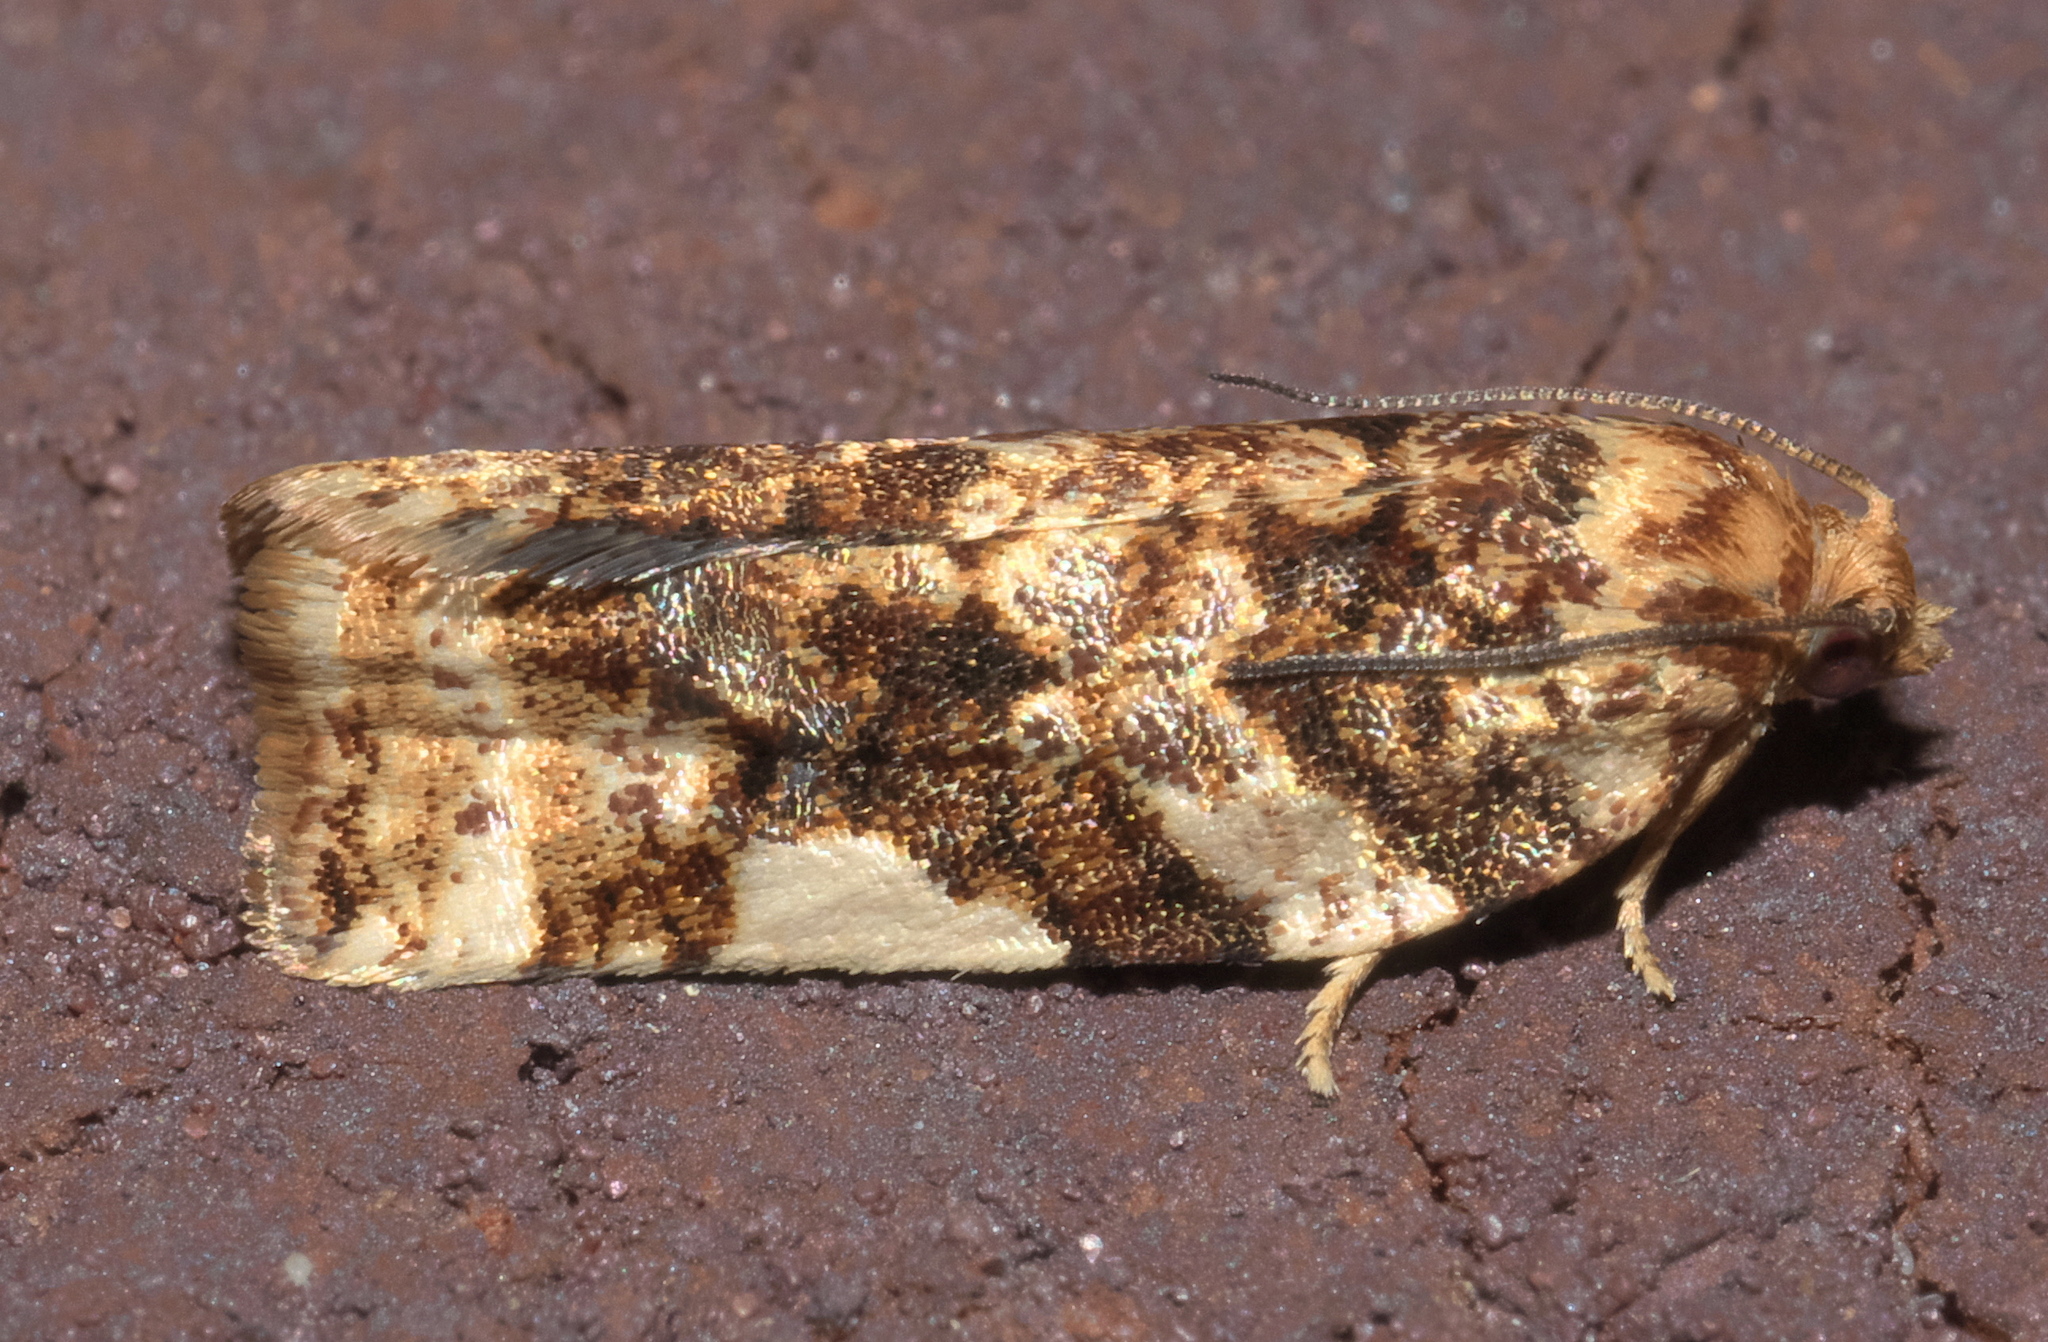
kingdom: Animalia
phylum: Arthropoda
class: Insecta
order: Lepidoptera
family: Tortricidae
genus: Archips
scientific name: Archips argyrospila
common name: Fruit-tree leafroller moth
